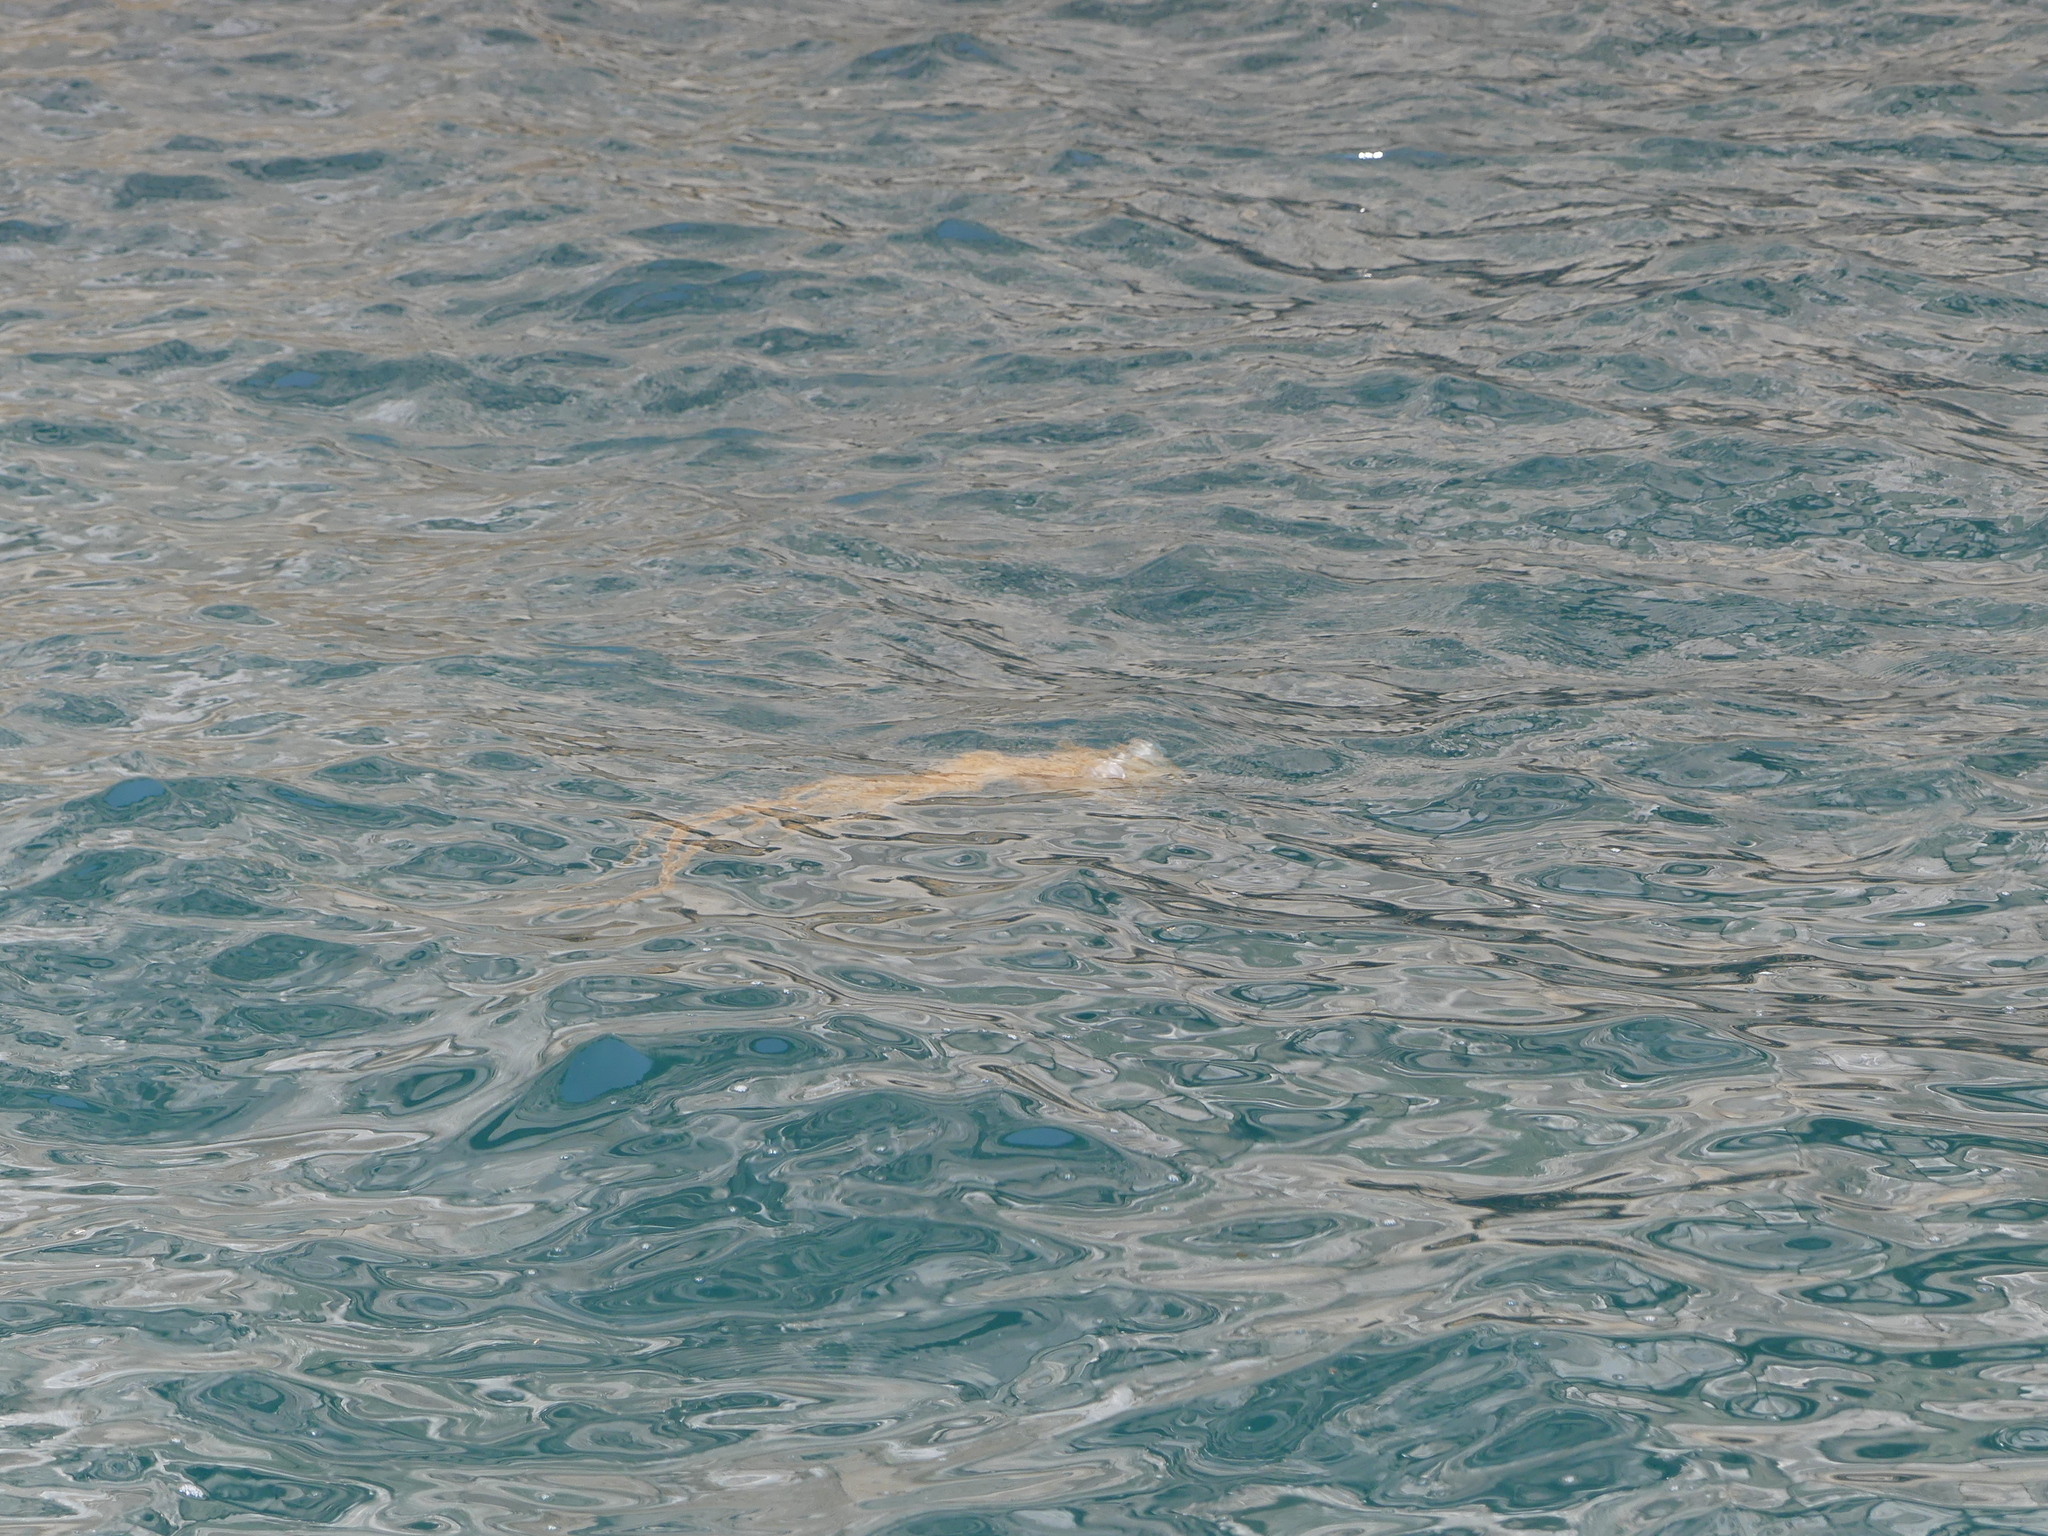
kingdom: Animalia
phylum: Cnidaria
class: Scyphozoa
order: Semaeostomeae
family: Pelagiidae
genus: Chrysaora
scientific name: Chrysaora melanaster
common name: Northern sea nettle
